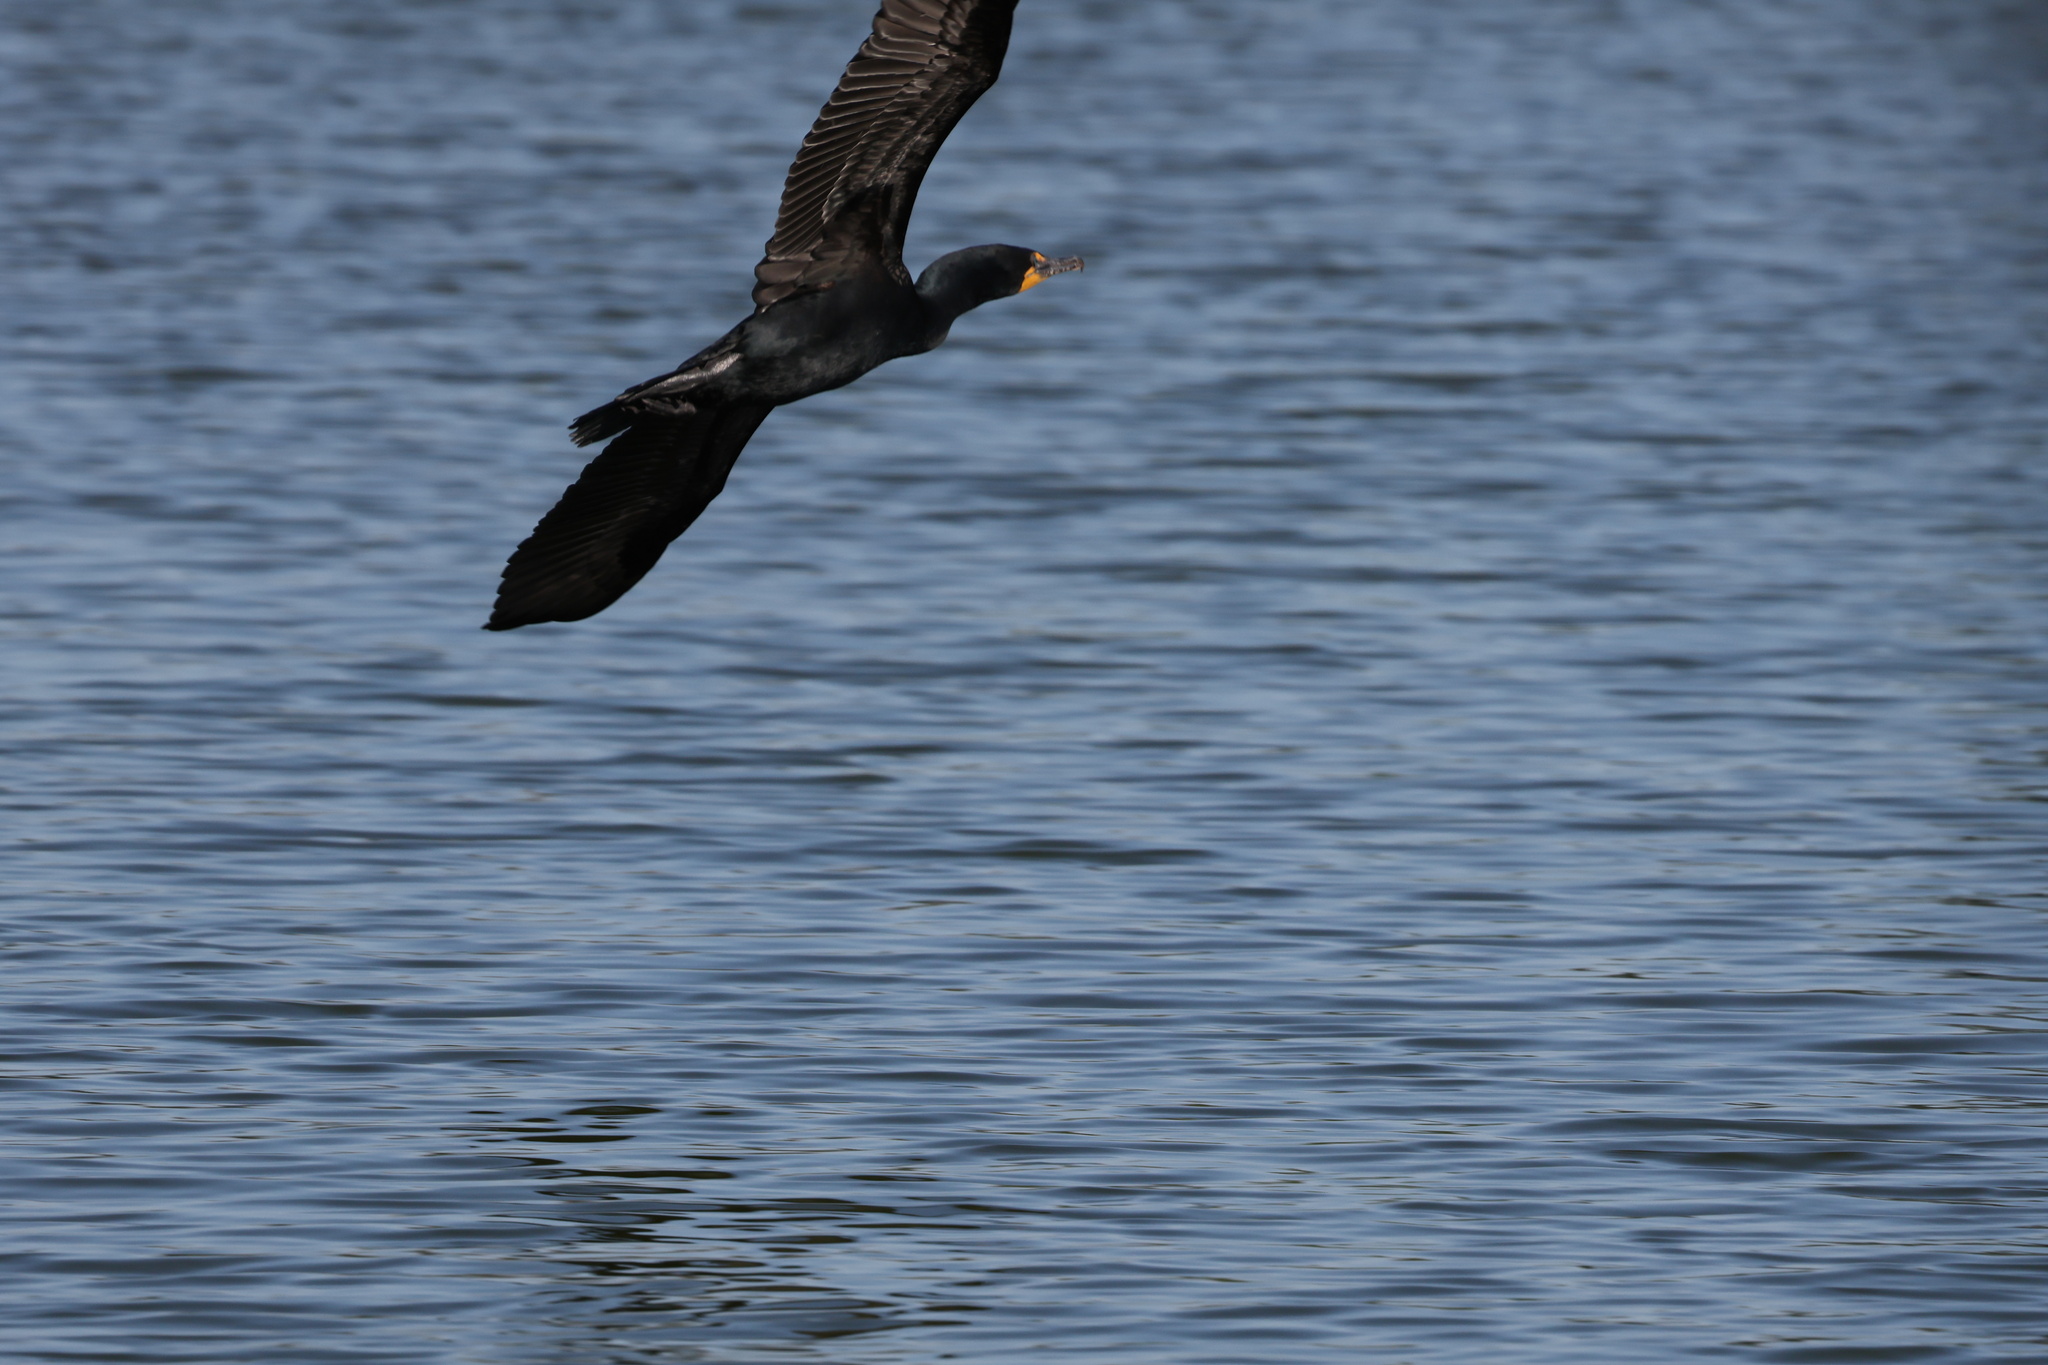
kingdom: Animalia
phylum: Chordata
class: Aves
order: Suliformes
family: Phalacrocoracidae
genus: Phalacrocorax
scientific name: Phalacrocorax auritus
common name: Double-crested cormorant
